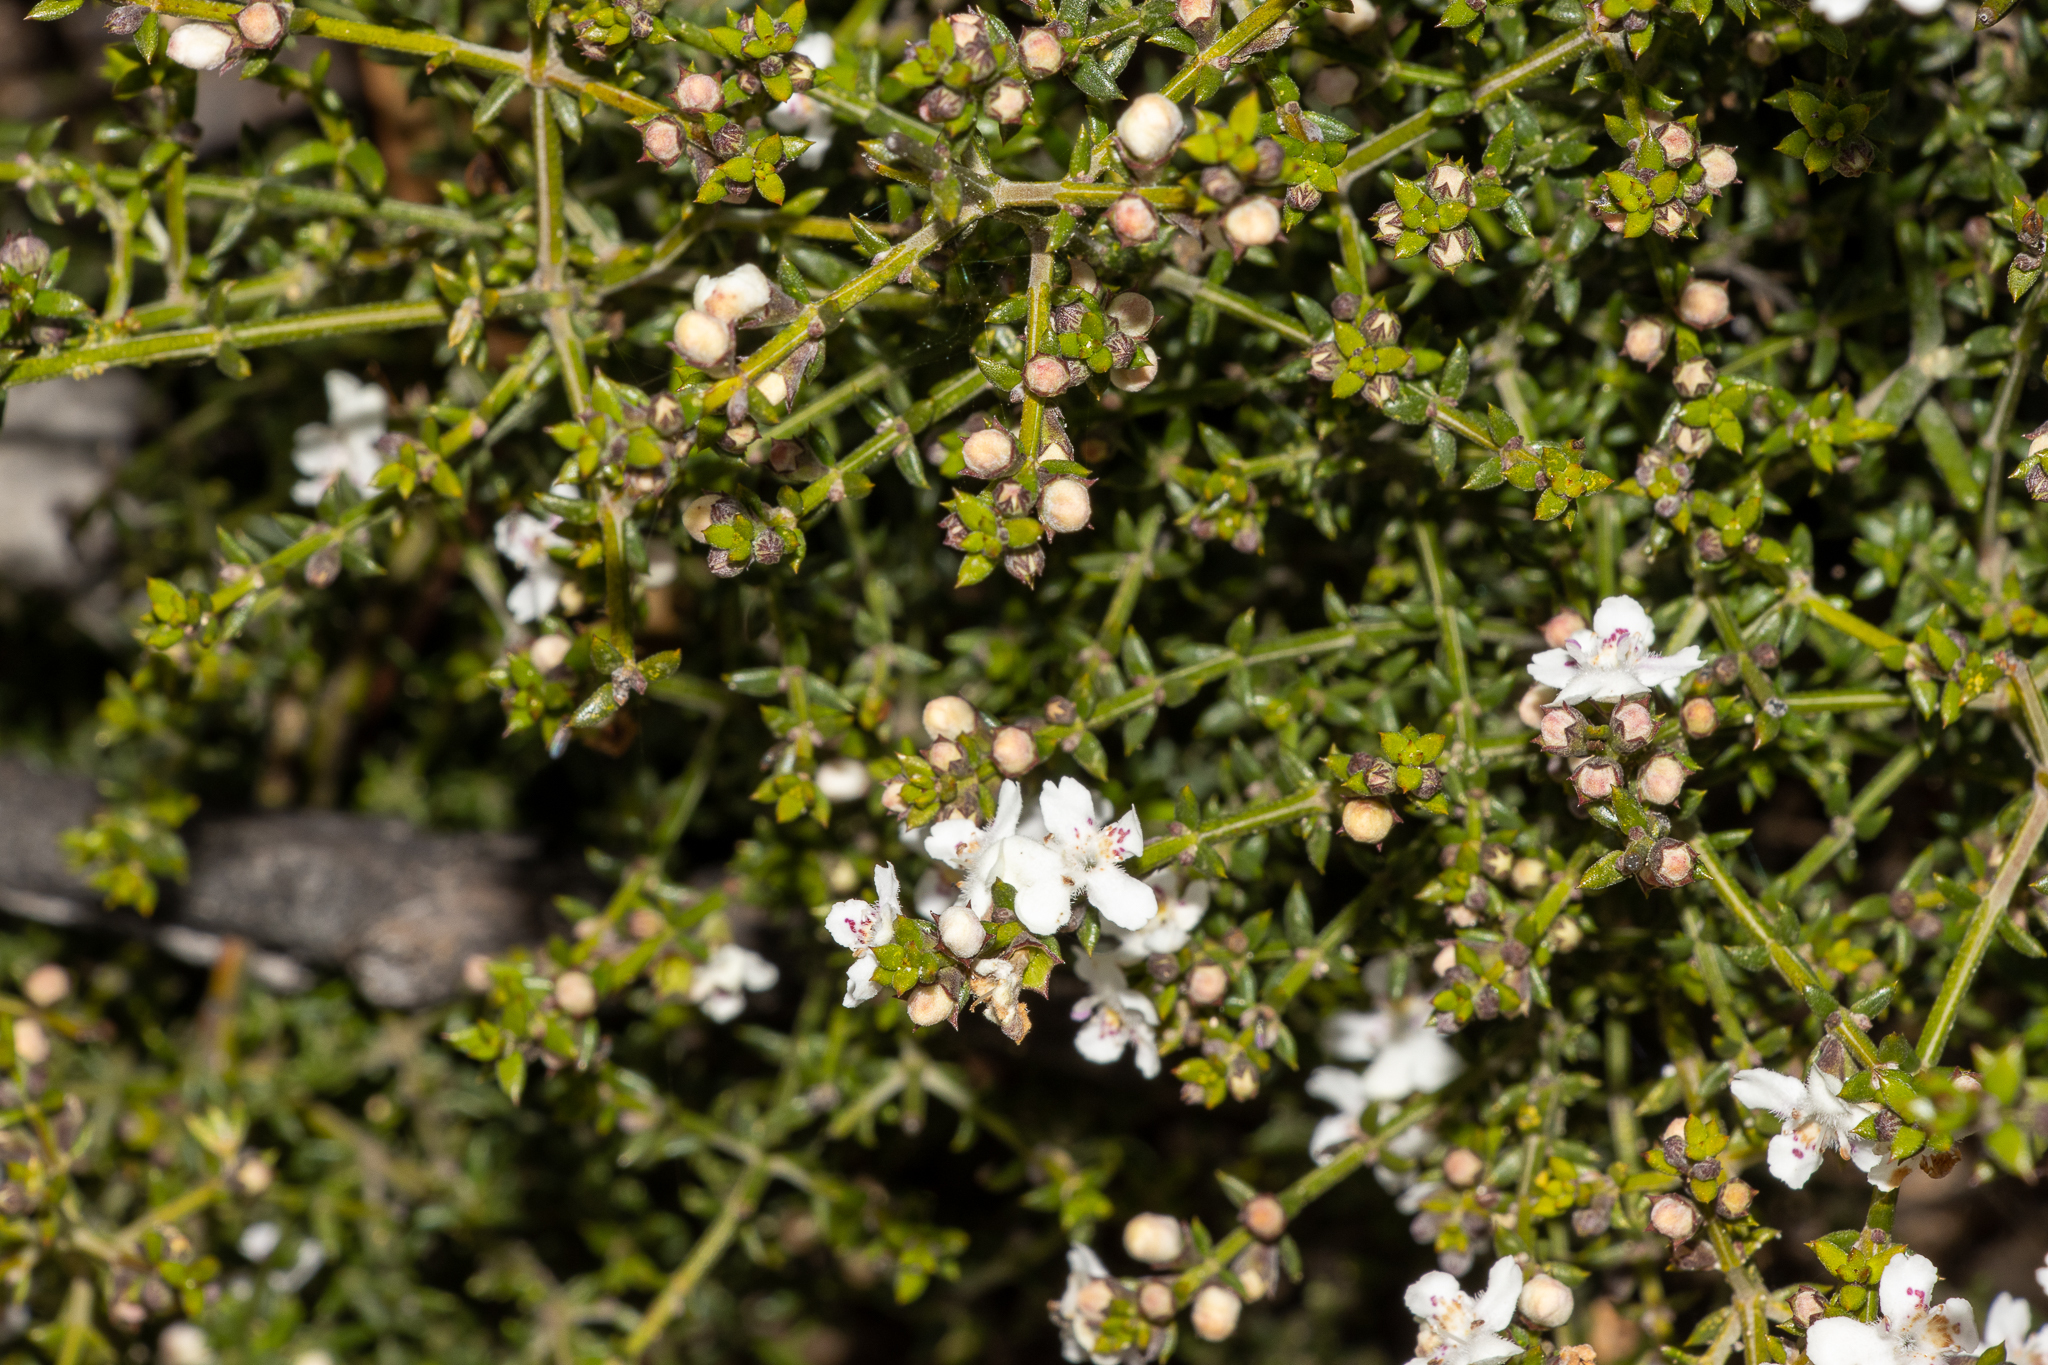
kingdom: Plantae
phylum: Tracheophyta
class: Magnoliopsida
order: Lamiales
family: Lamiaceae
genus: Westringia
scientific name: Westringia rigida
